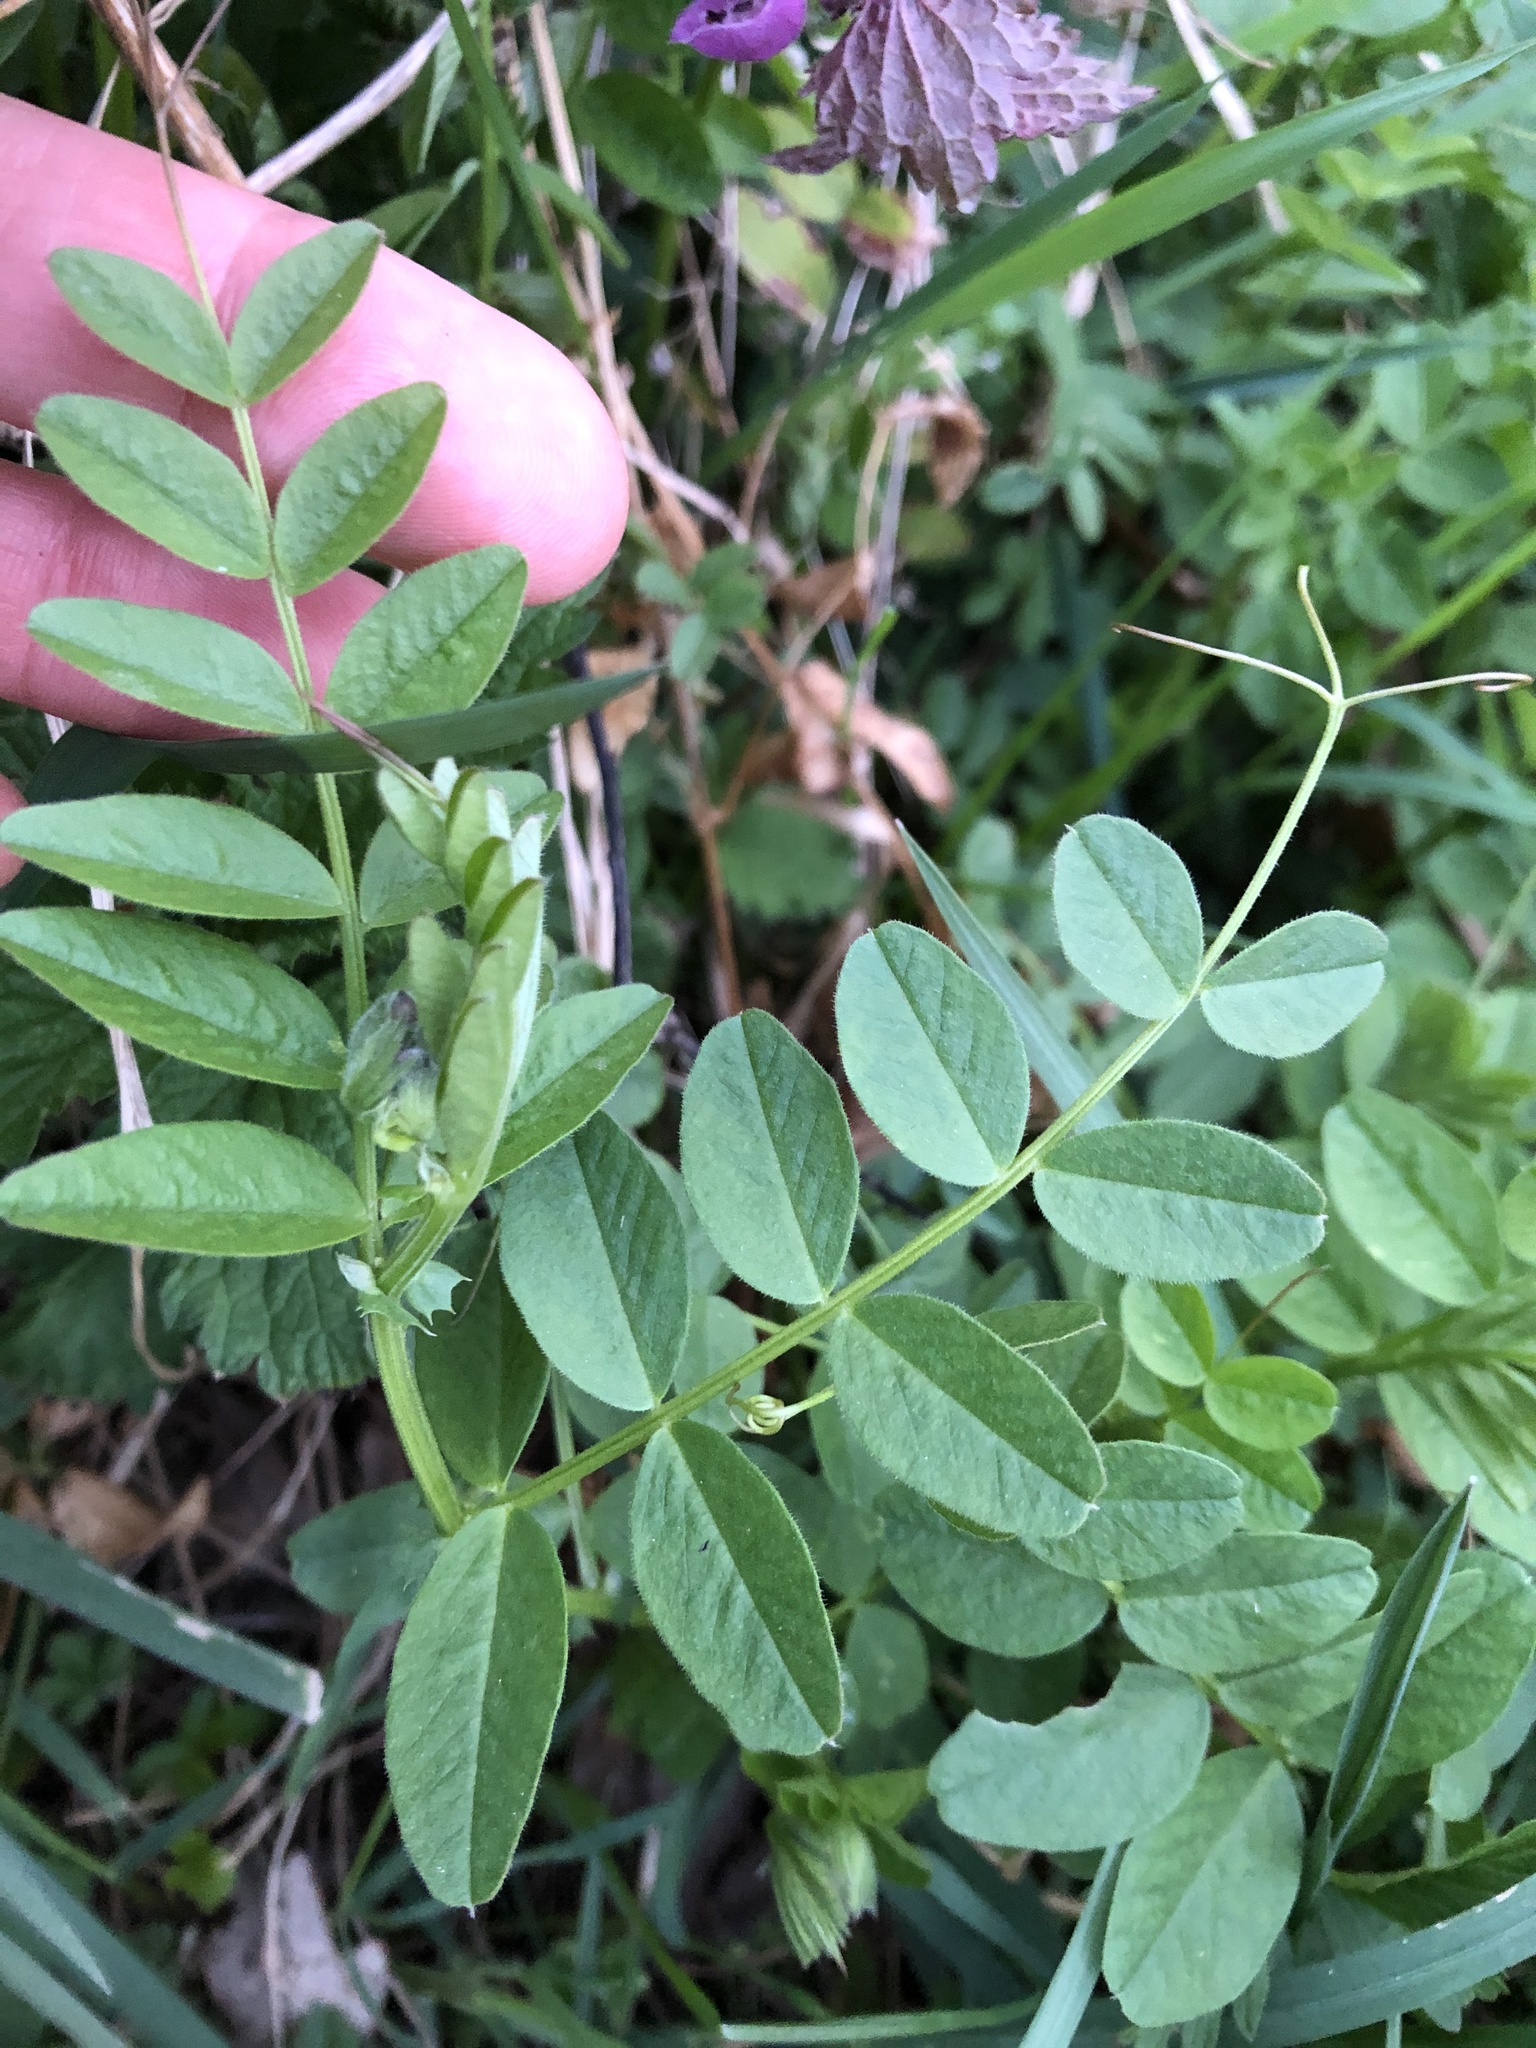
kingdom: Plantae
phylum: Tracheophyta
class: Magnoliopsida
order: Fabales
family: Fabaceae
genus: Vicia
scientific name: Vicia sepium
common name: Bush vetch
